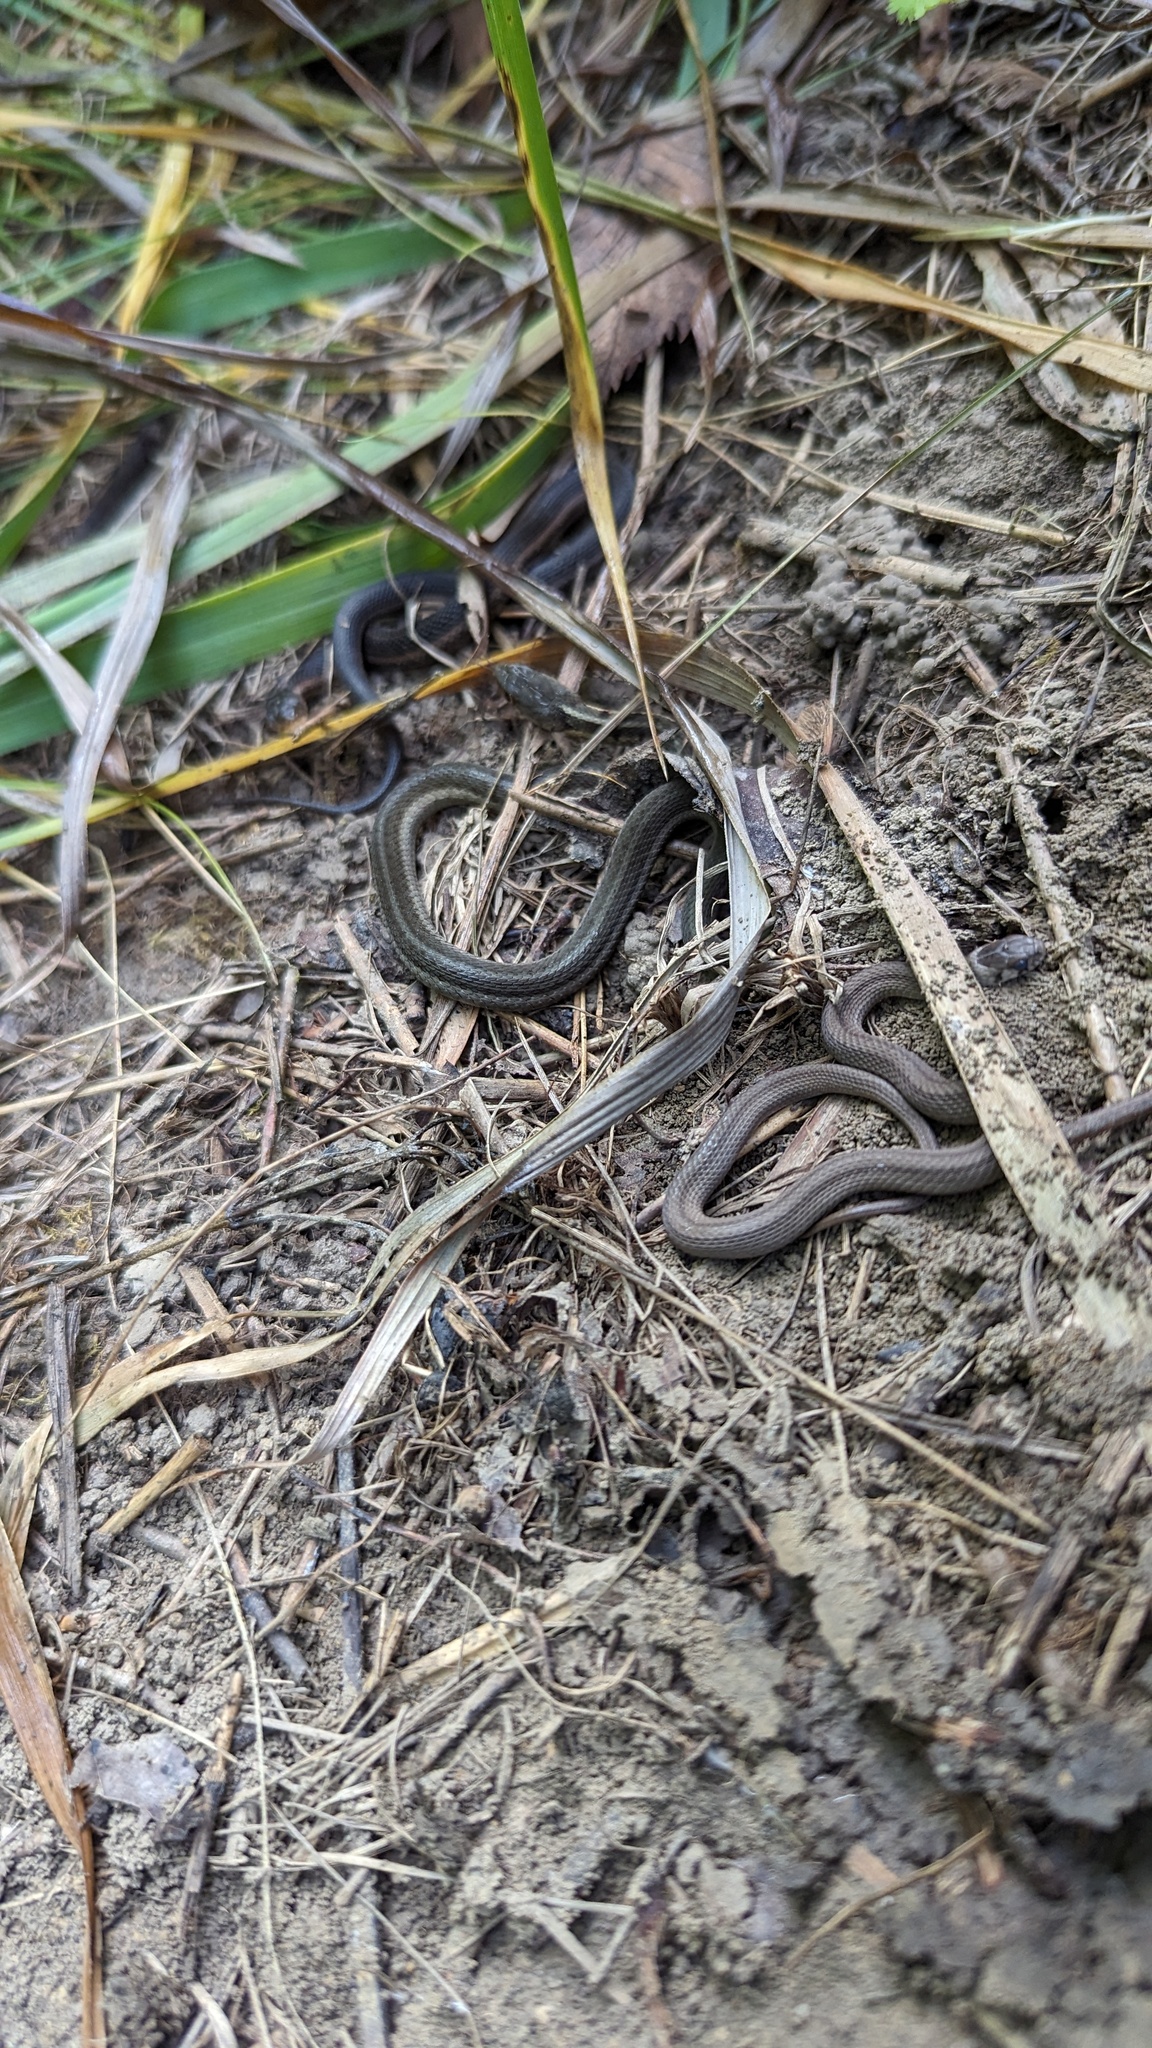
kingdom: Animalia
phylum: Chordata
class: Squamata
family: Colubridae
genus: Thamnophis
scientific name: Thamnophis sirtalis
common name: Common garter snake
